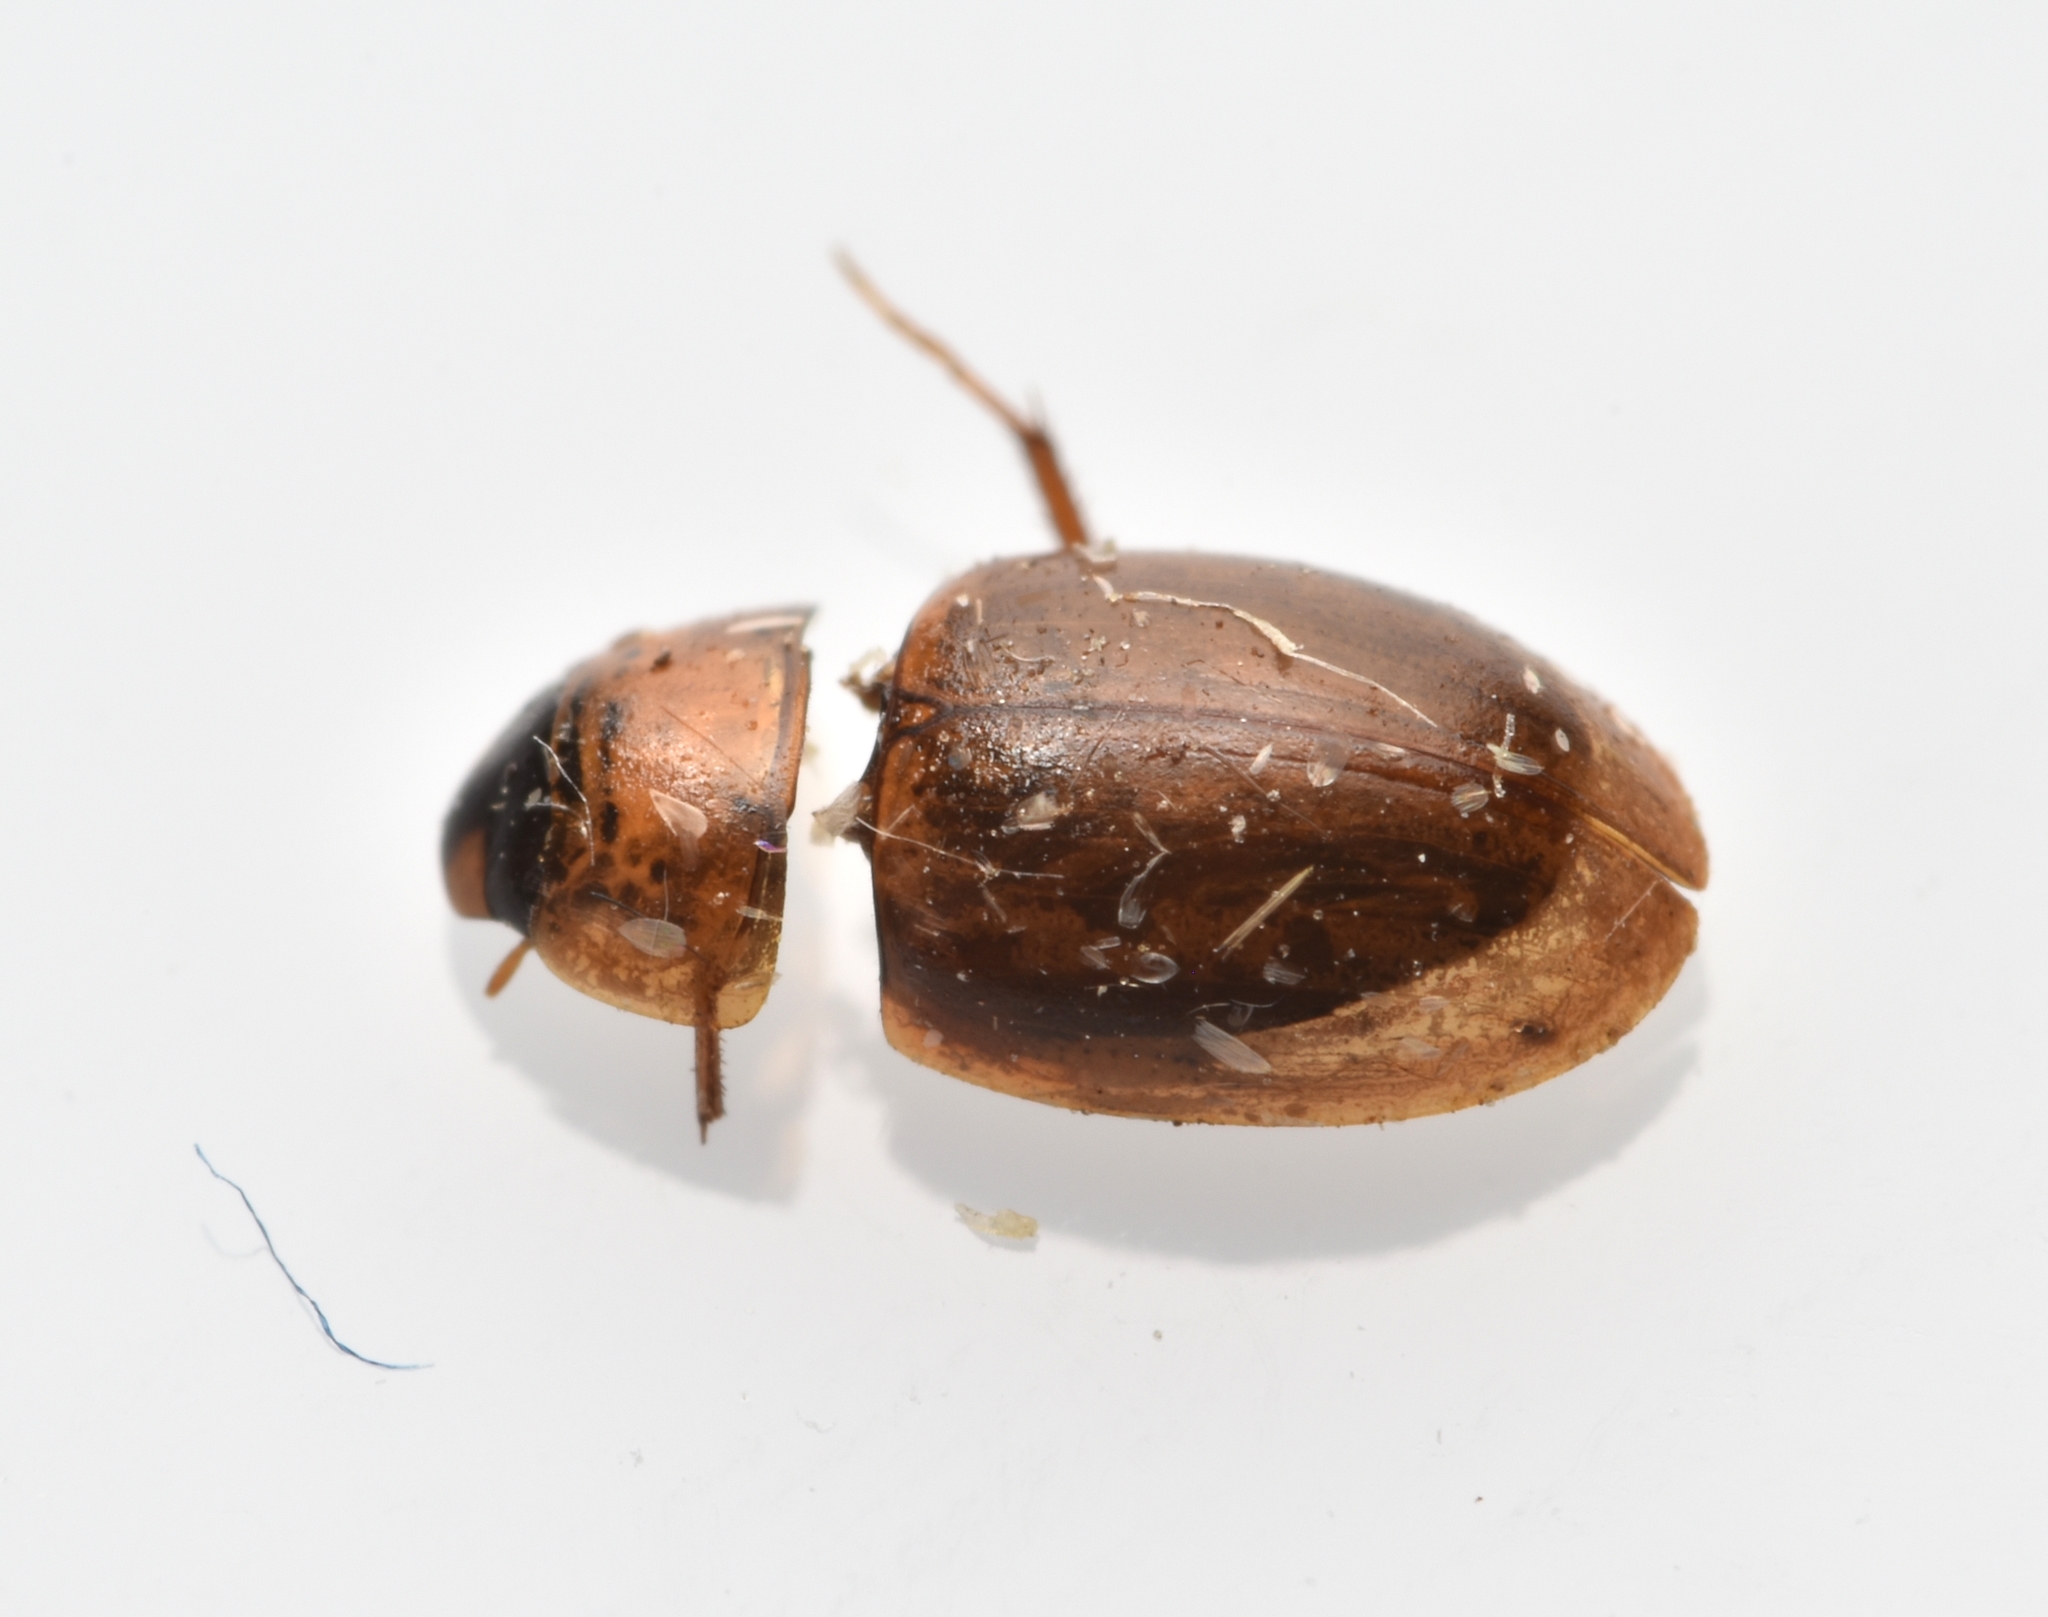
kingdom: Animalia
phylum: Arthropoda
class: Insecta
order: Coleoptera
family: Hydrophilidae
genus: Enochrus
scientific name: Enochrus
